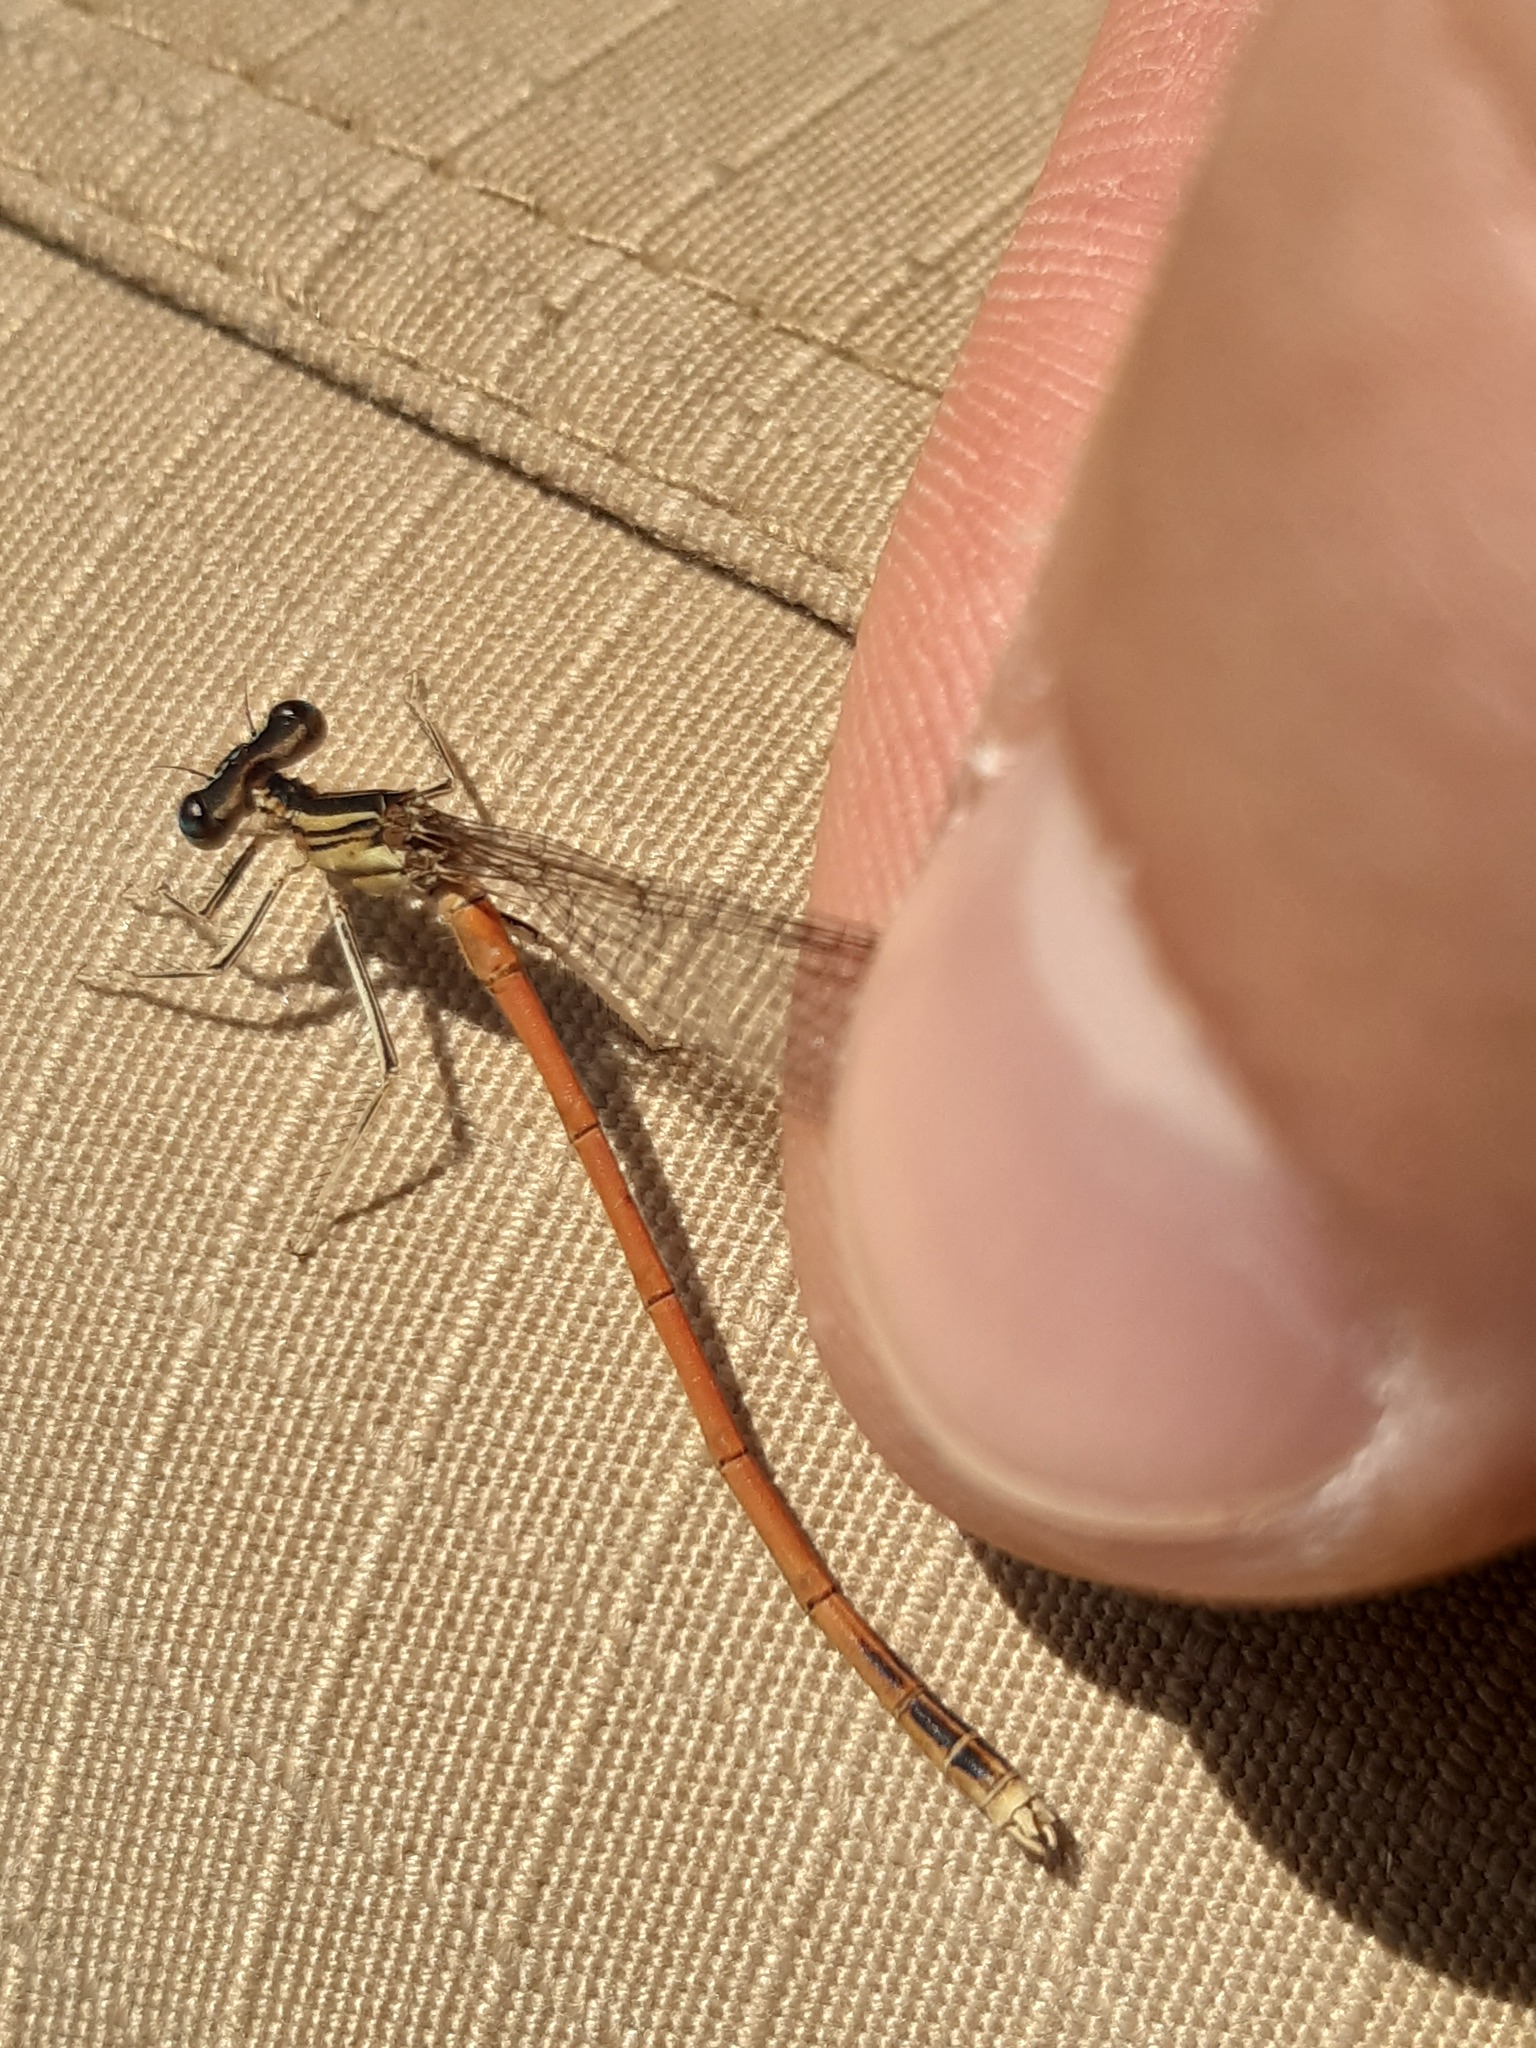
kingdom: Animalia
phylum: Arthropoda
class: Insecta
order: Odonata
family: Platycnemididae
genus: Platycnemis
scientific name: Platycnemis acutipennis
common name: Orange featherleg
